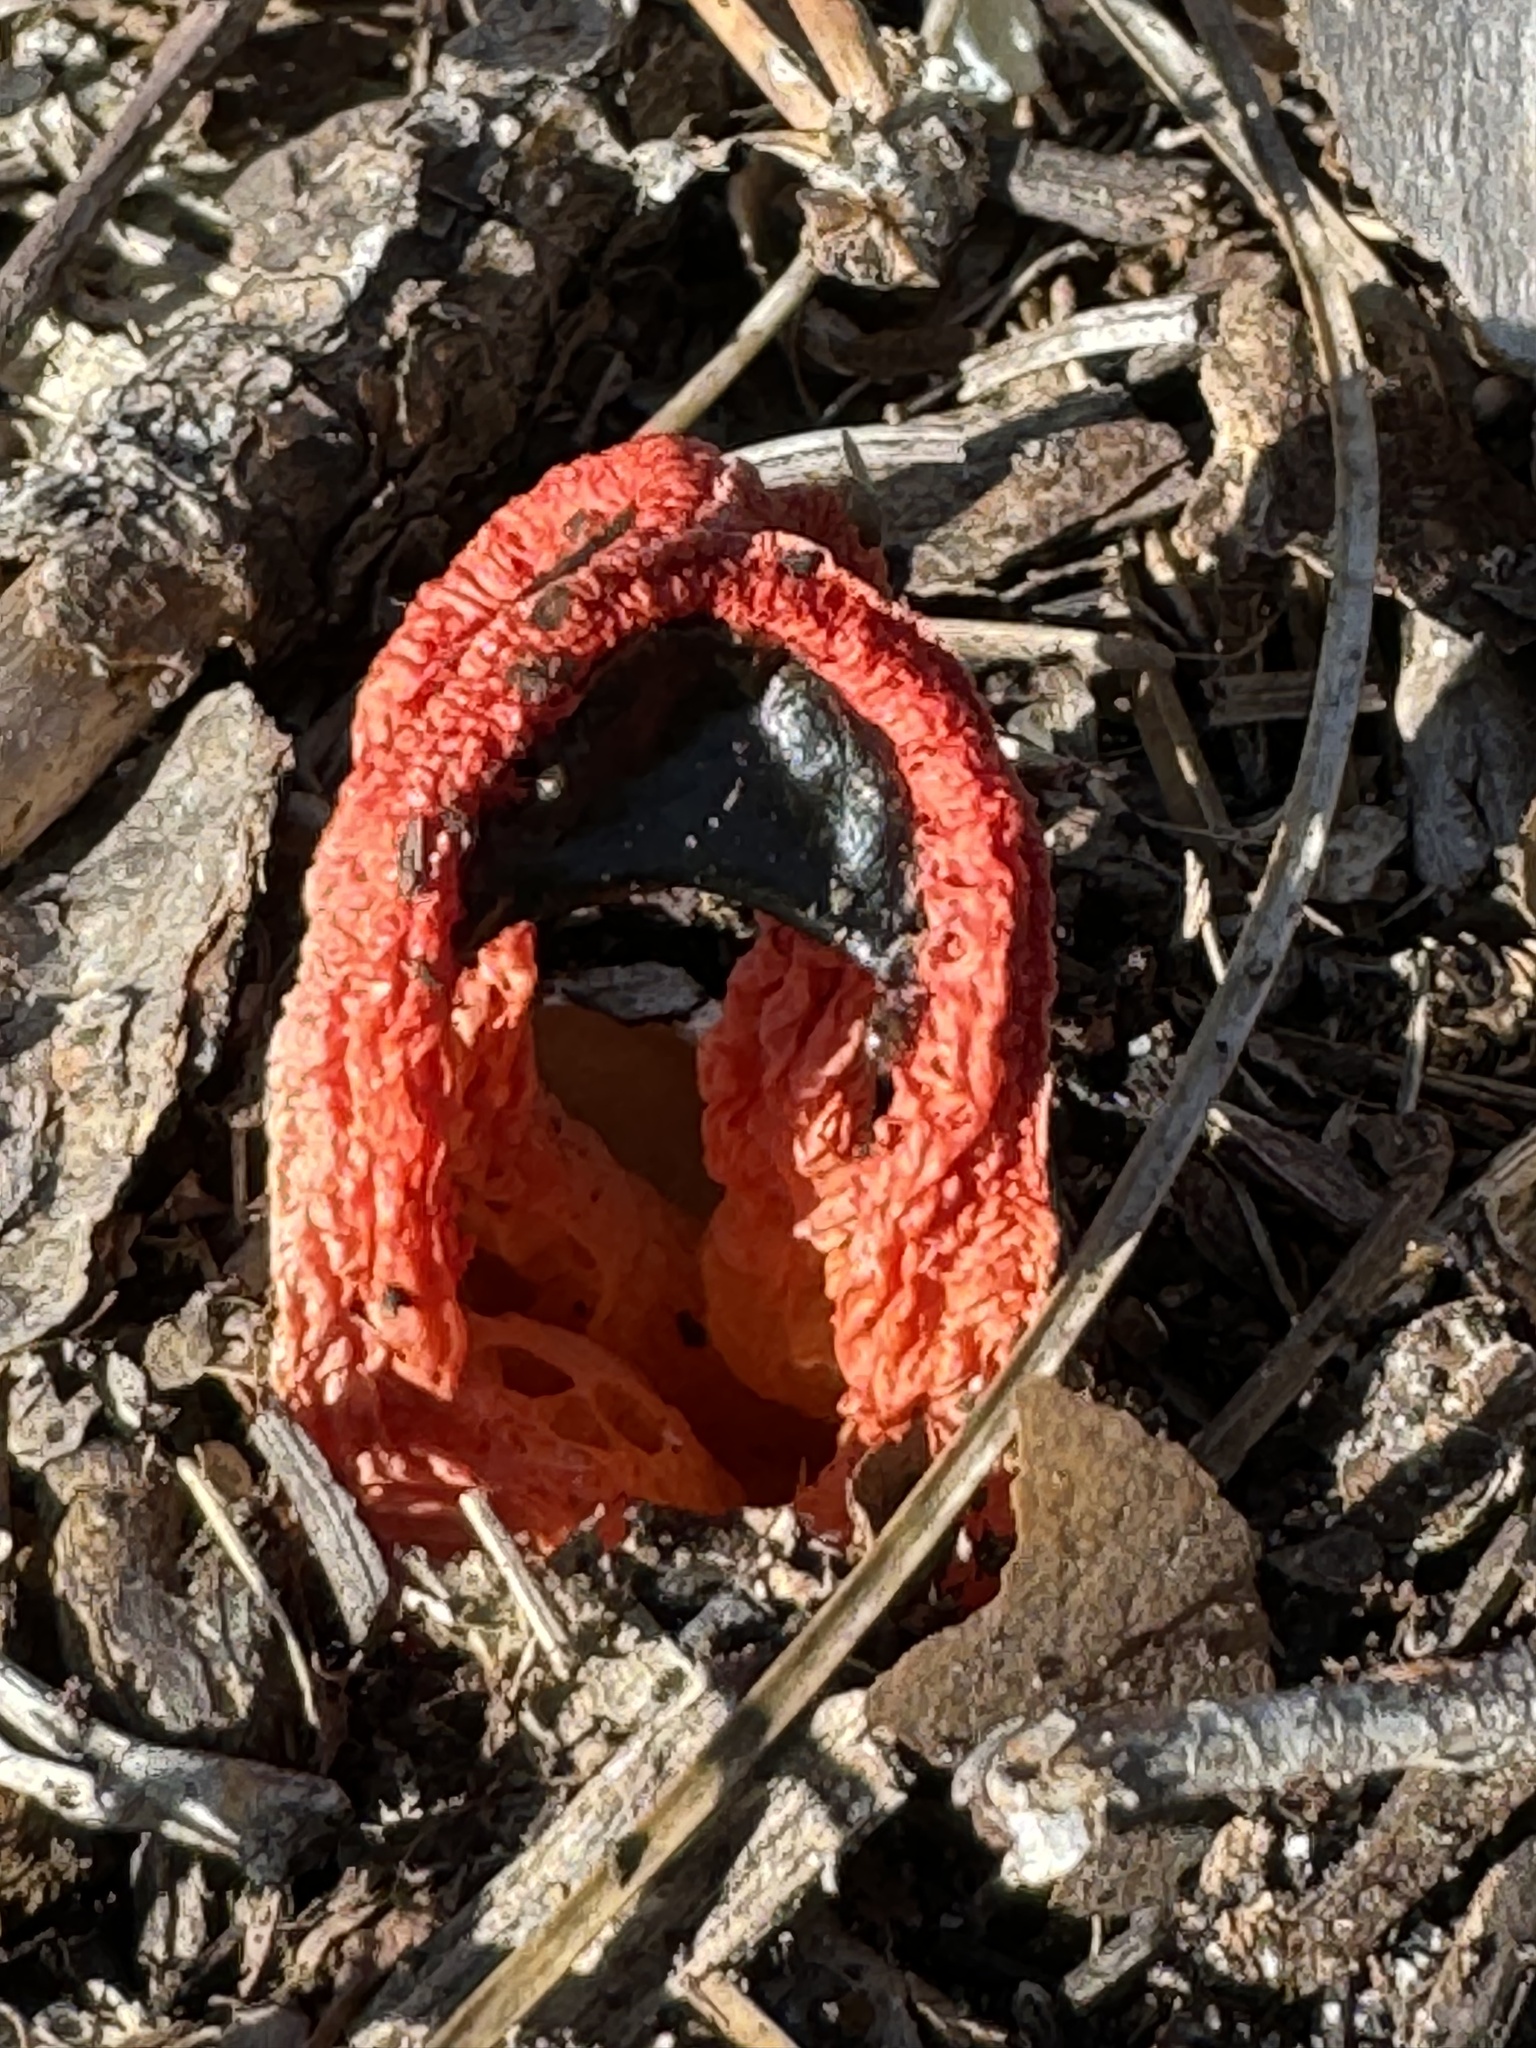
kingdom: Fungi
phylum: Basidiomycota
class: Agaricomycetes
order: Phallales
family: Phallaceae
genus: Clathrus
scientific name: Clathrus columnatus
